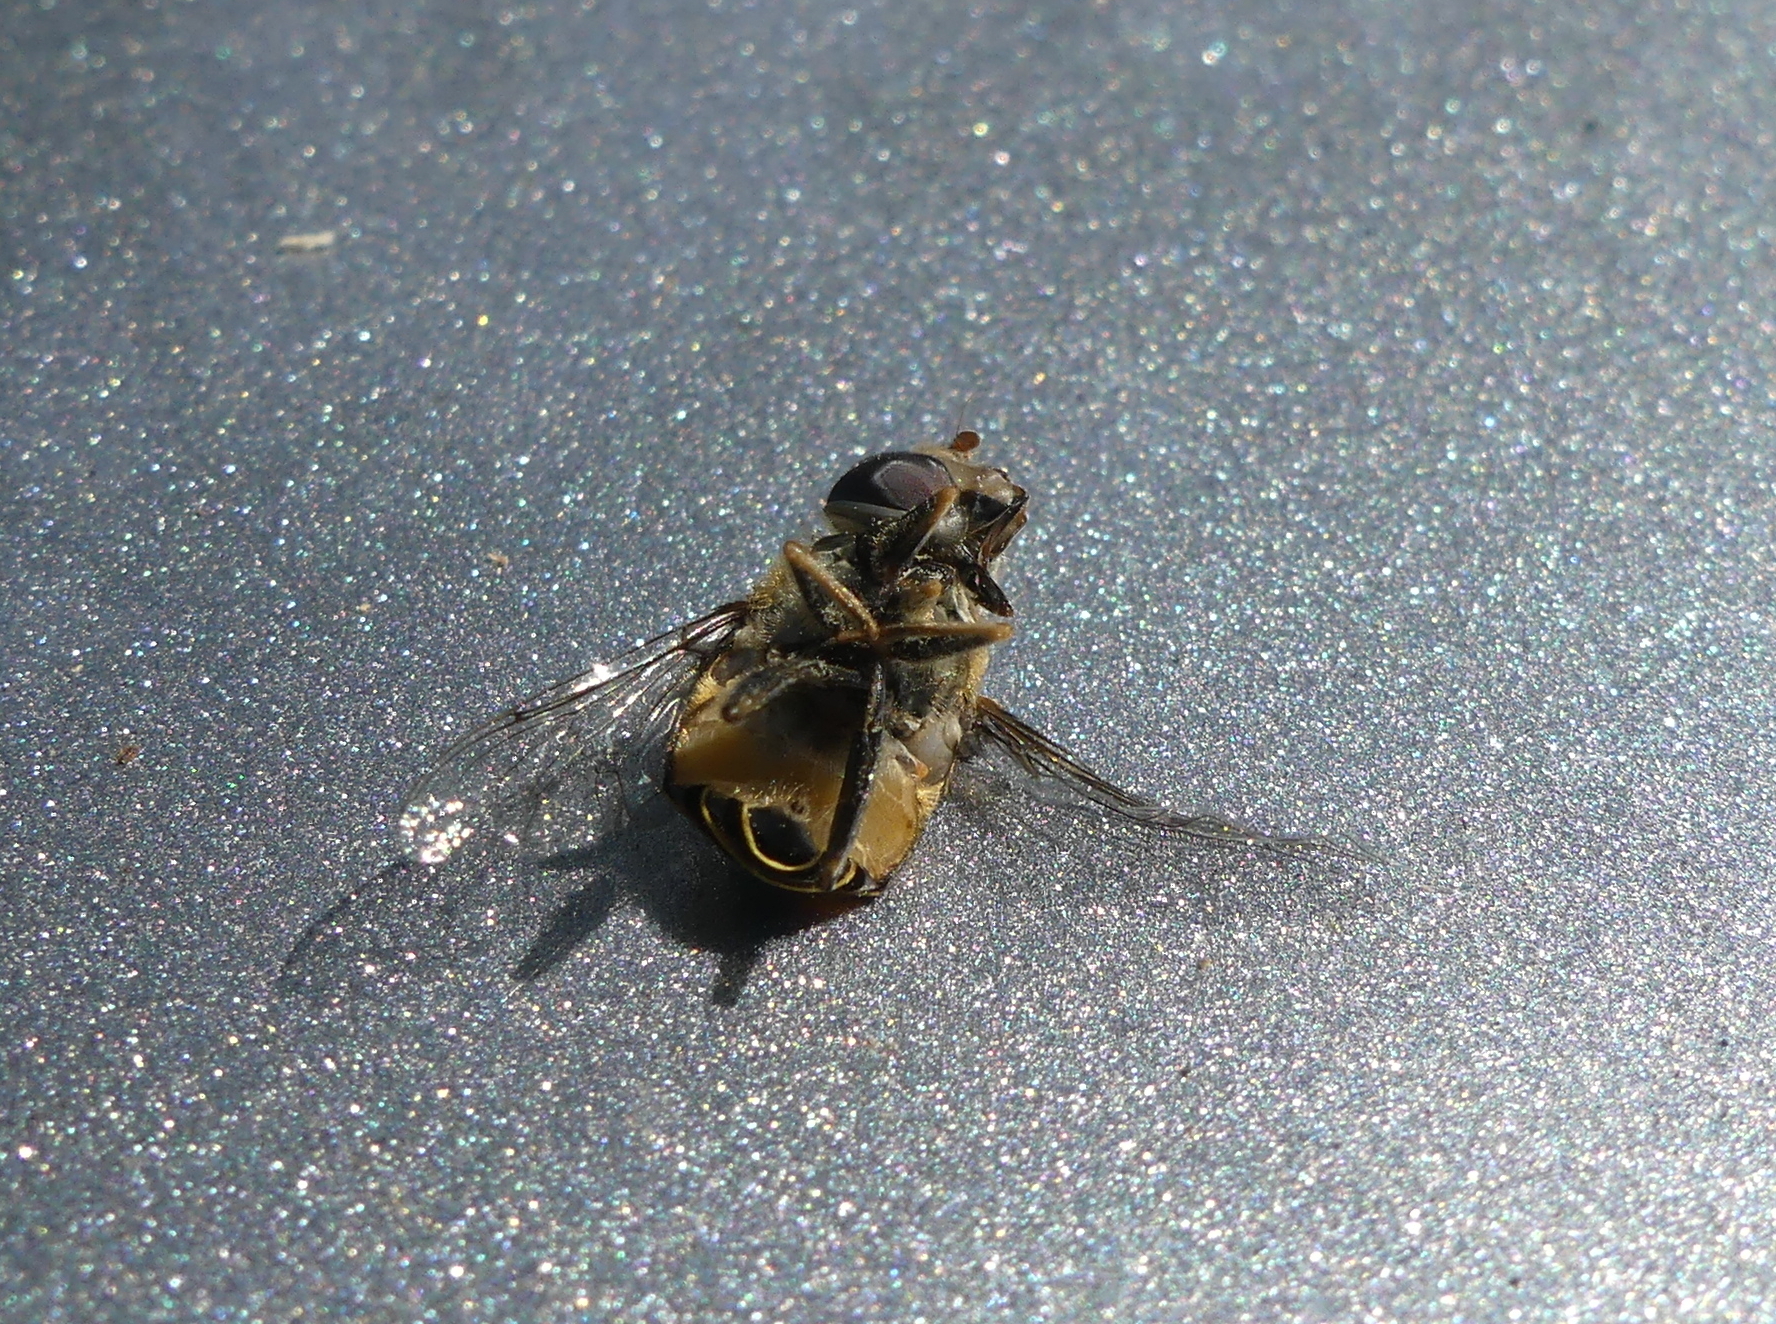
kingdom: Animalia
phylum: Arthropoda
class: Insecta
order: Diptera
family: Syrphidae
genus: Palpada
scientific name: Palpada agrorum
